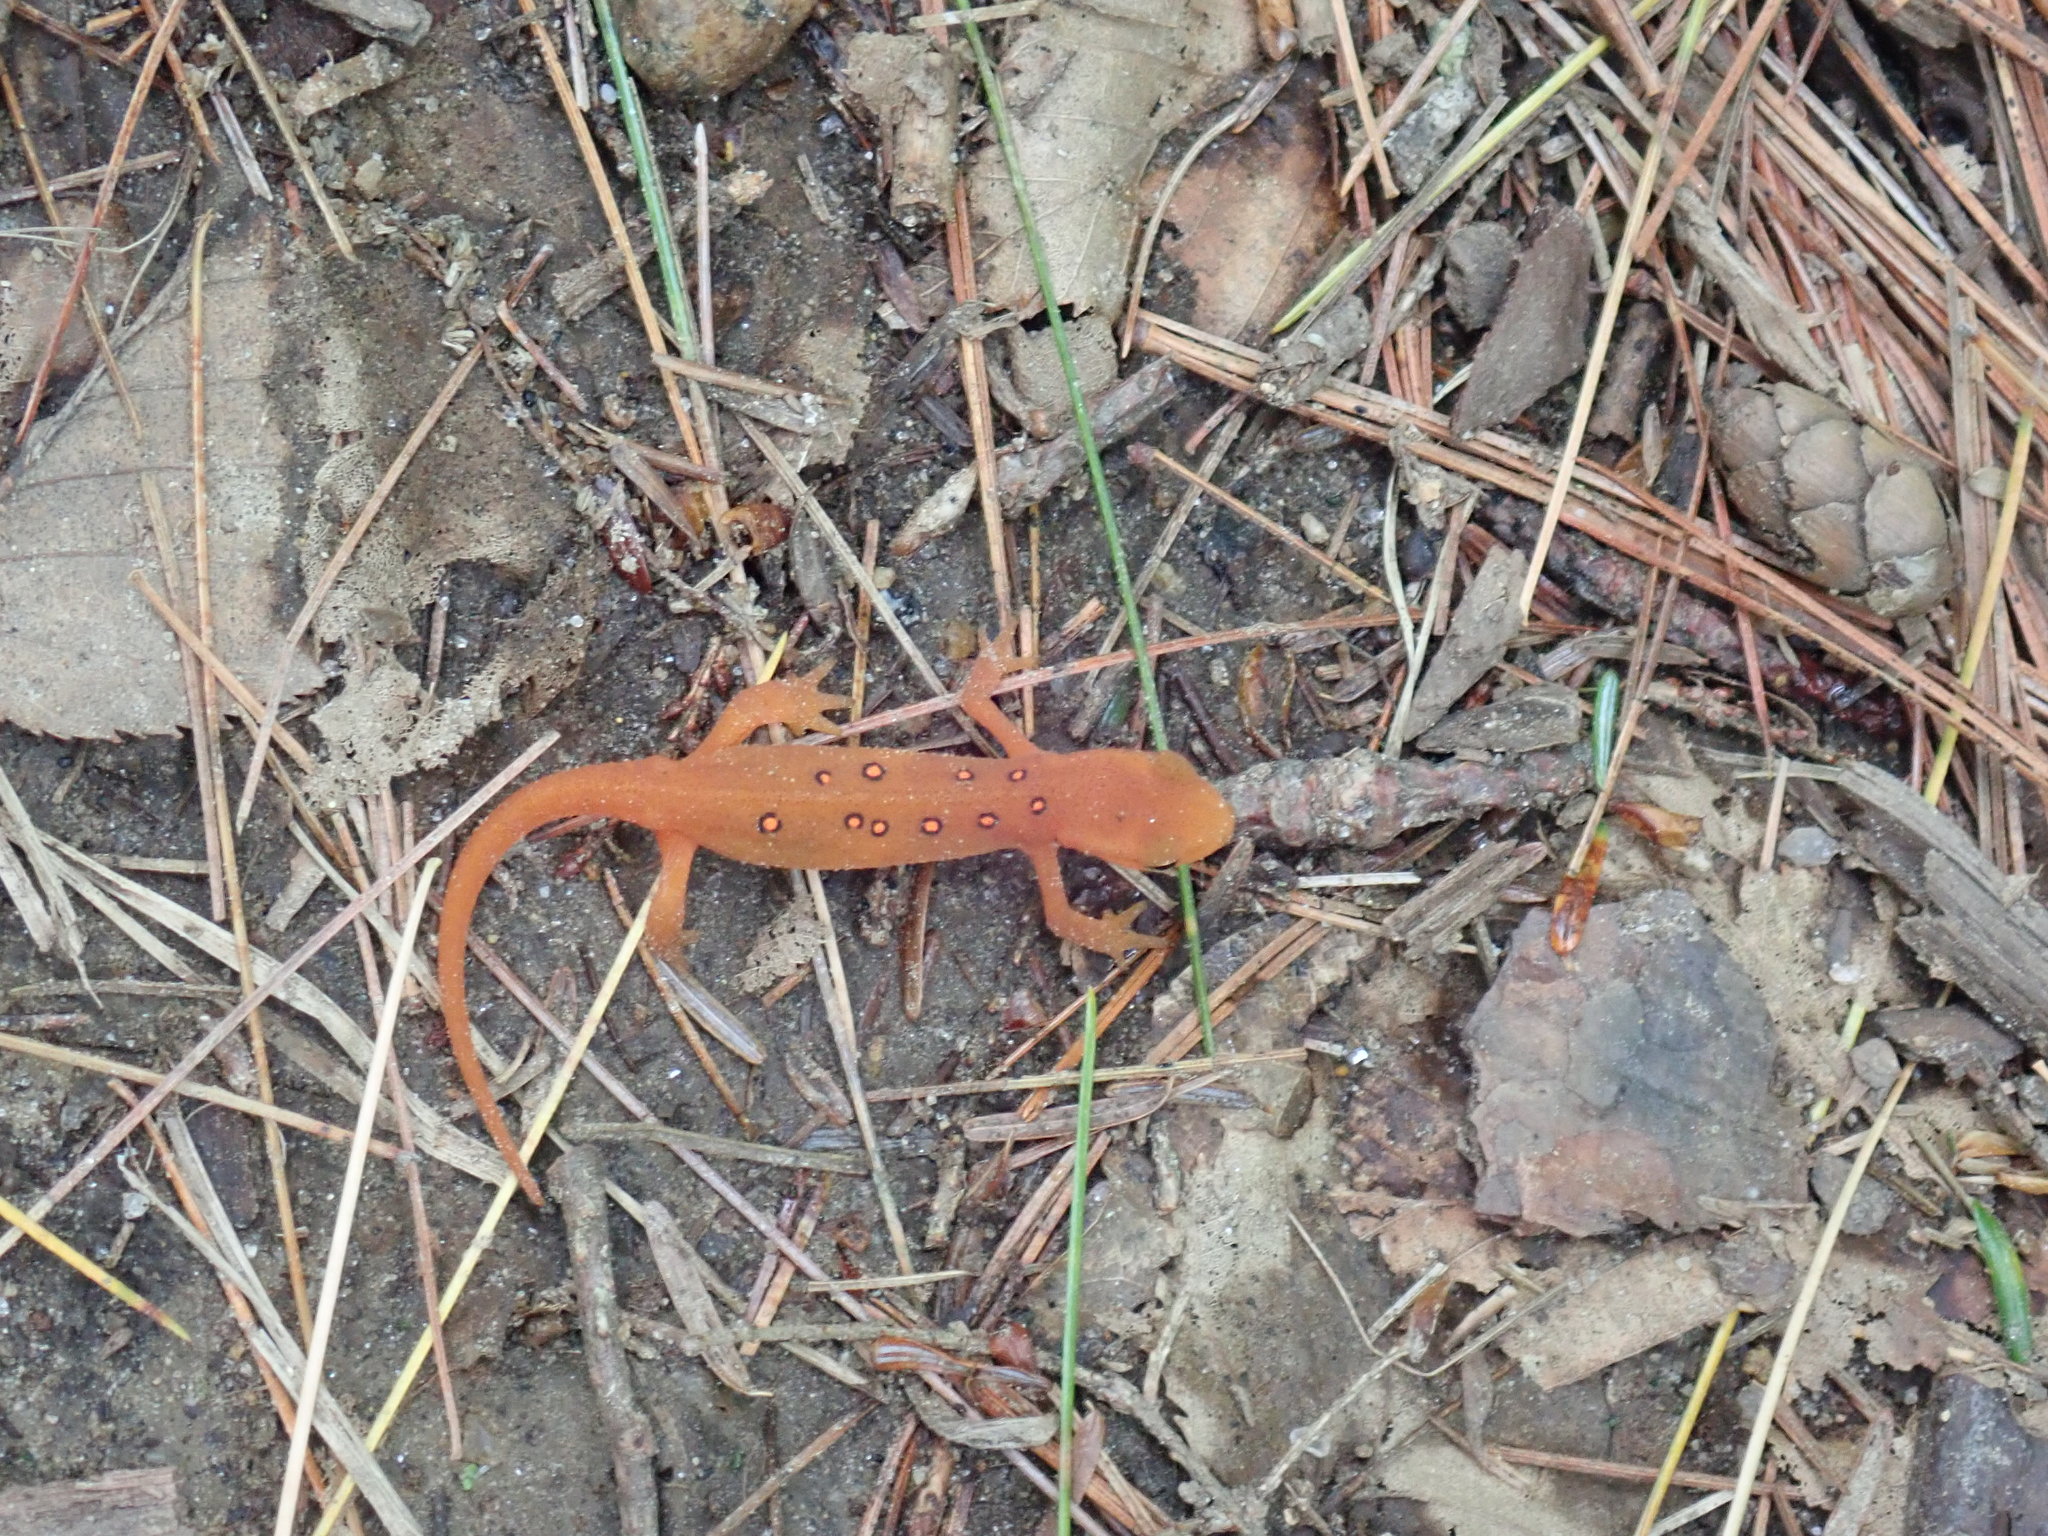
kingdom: Animalia
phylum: Chordata
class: Amphibia
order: Caudata
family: Salamandridae
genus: Notophthalmus
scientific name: Notophthalmus viridescens
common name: Eastern newt
